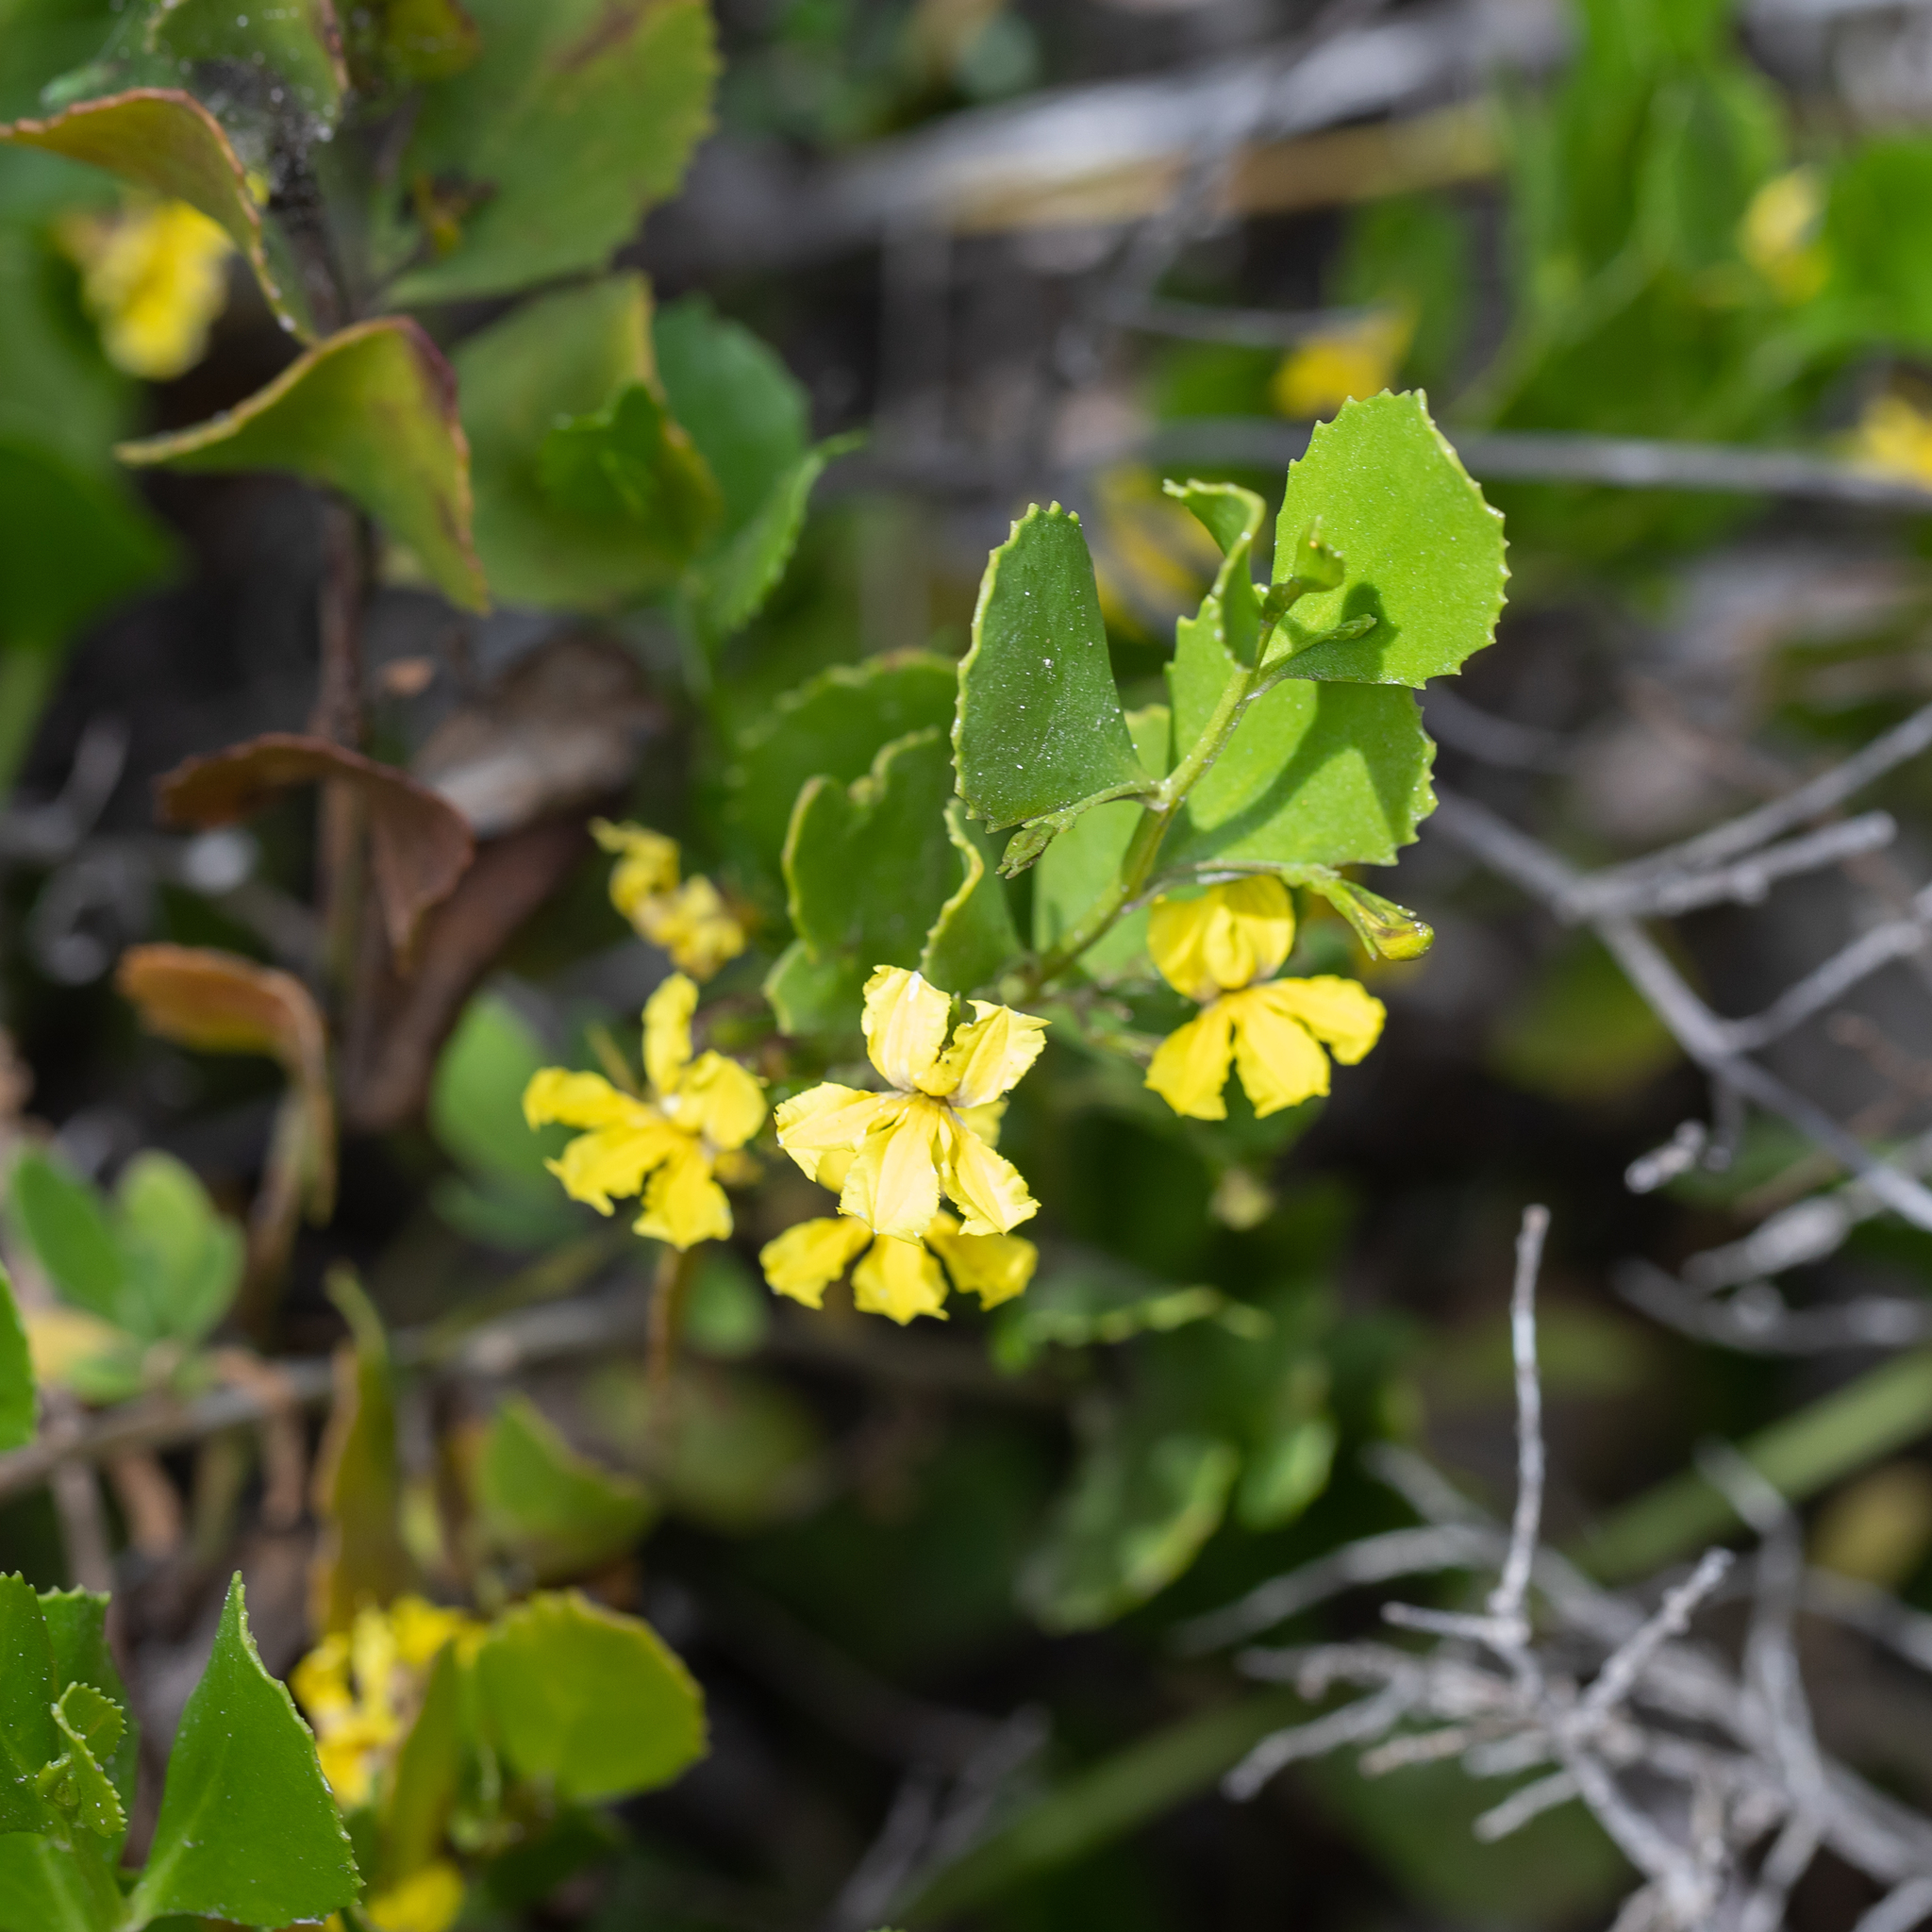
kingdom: Plantae
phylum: Tracheophyta
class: Magnoliopsida
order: Asterales
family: Goodeniaceae
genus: Goodenia
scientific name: Goodenia varia
